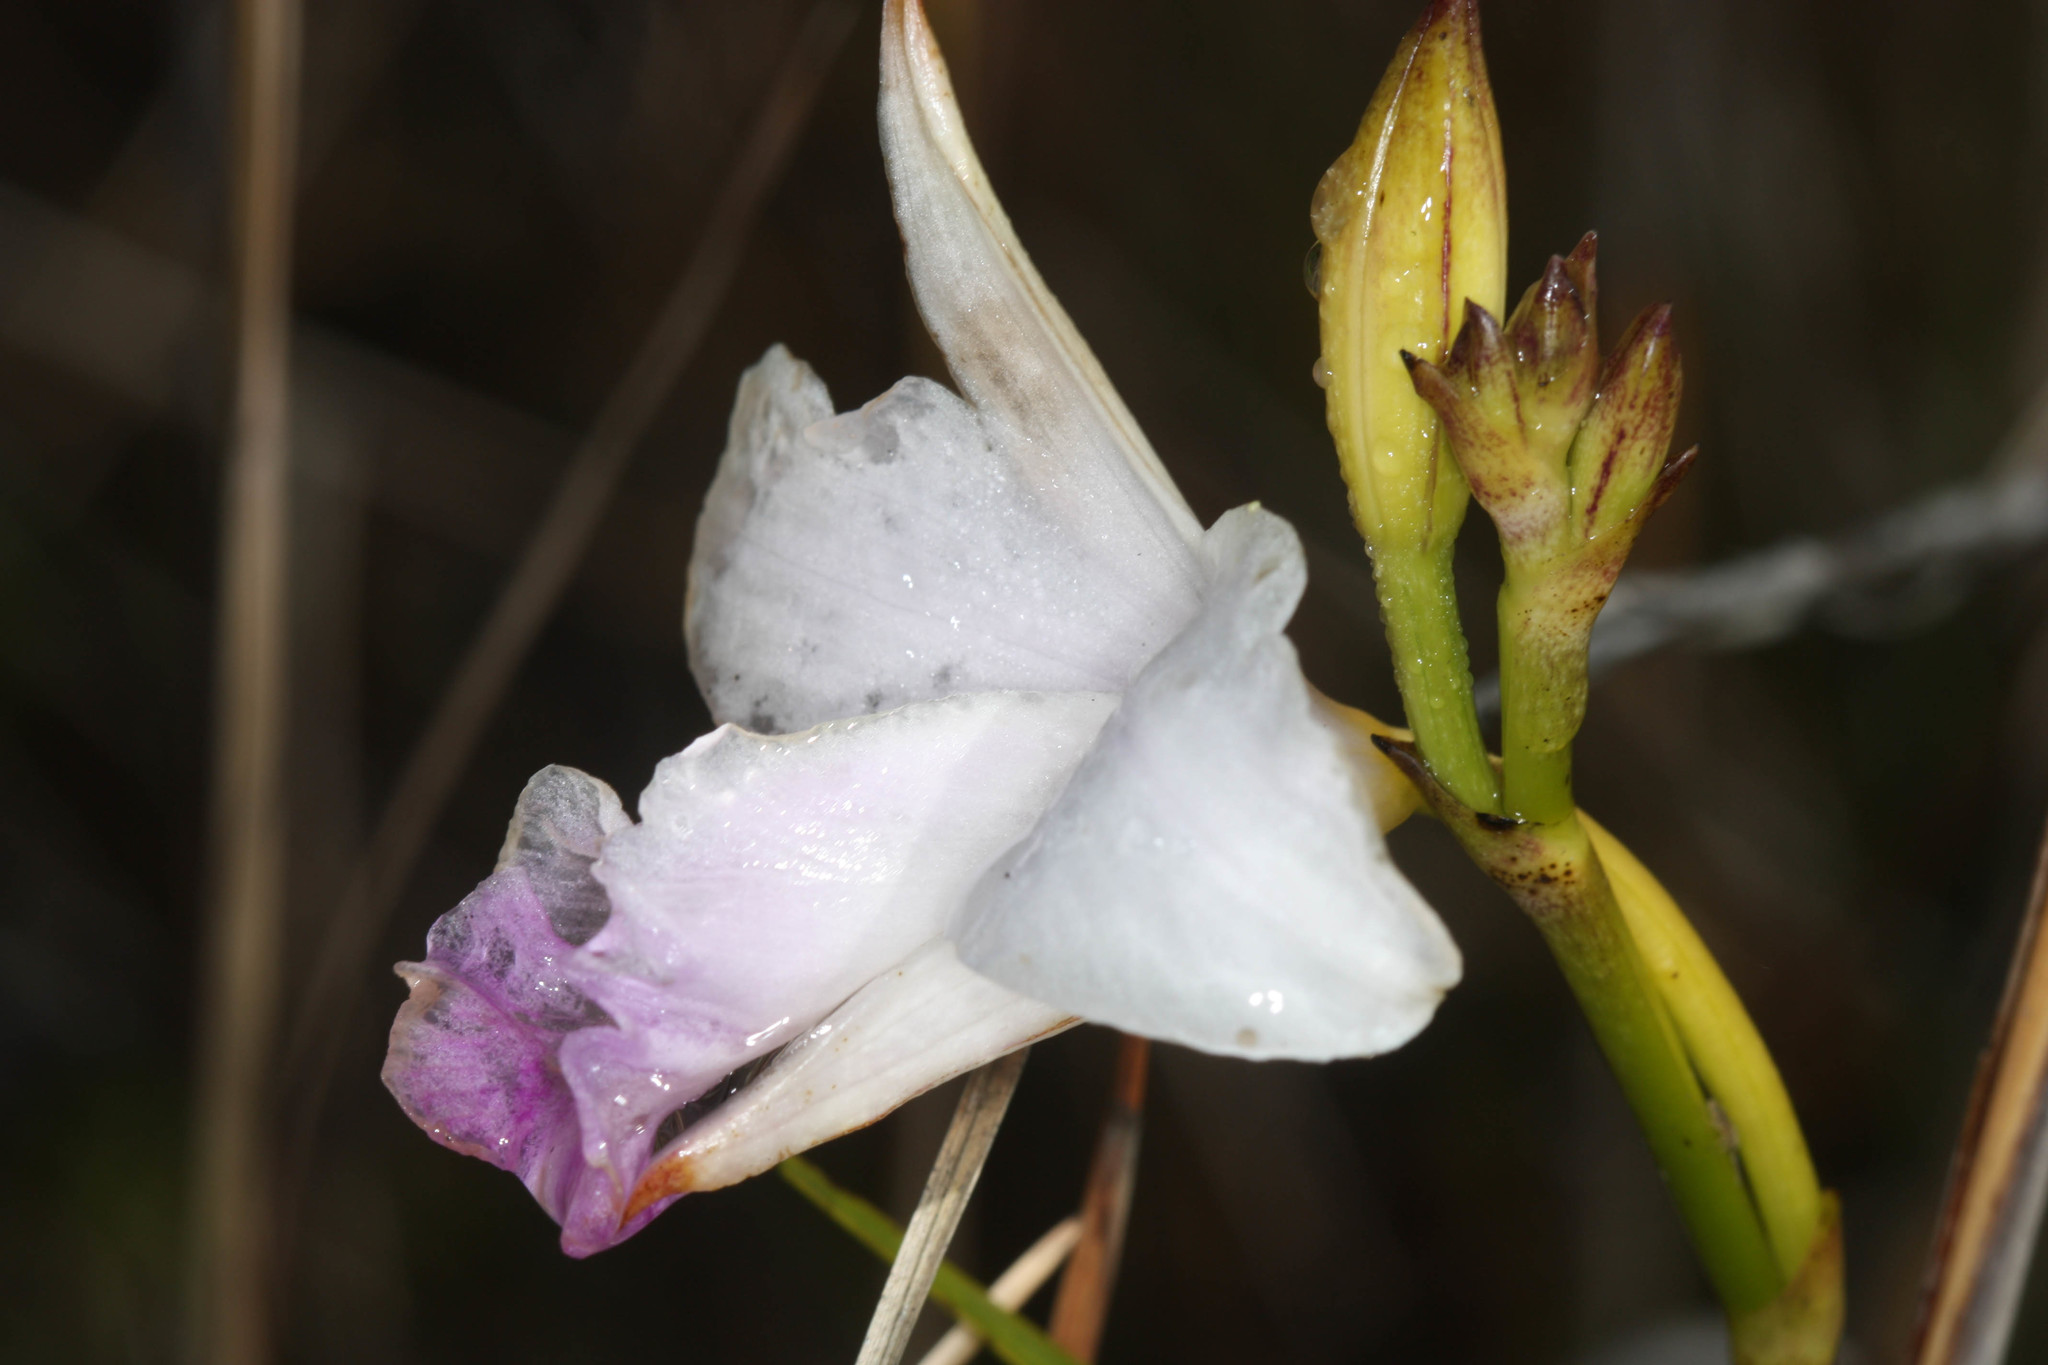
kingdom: Plantae
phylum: Tracheophyta
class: Liliopsida
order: Asparagales
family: Orchidaceae
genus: Arundina
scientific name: Arundina graminifolia
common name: Bamboo orchid
